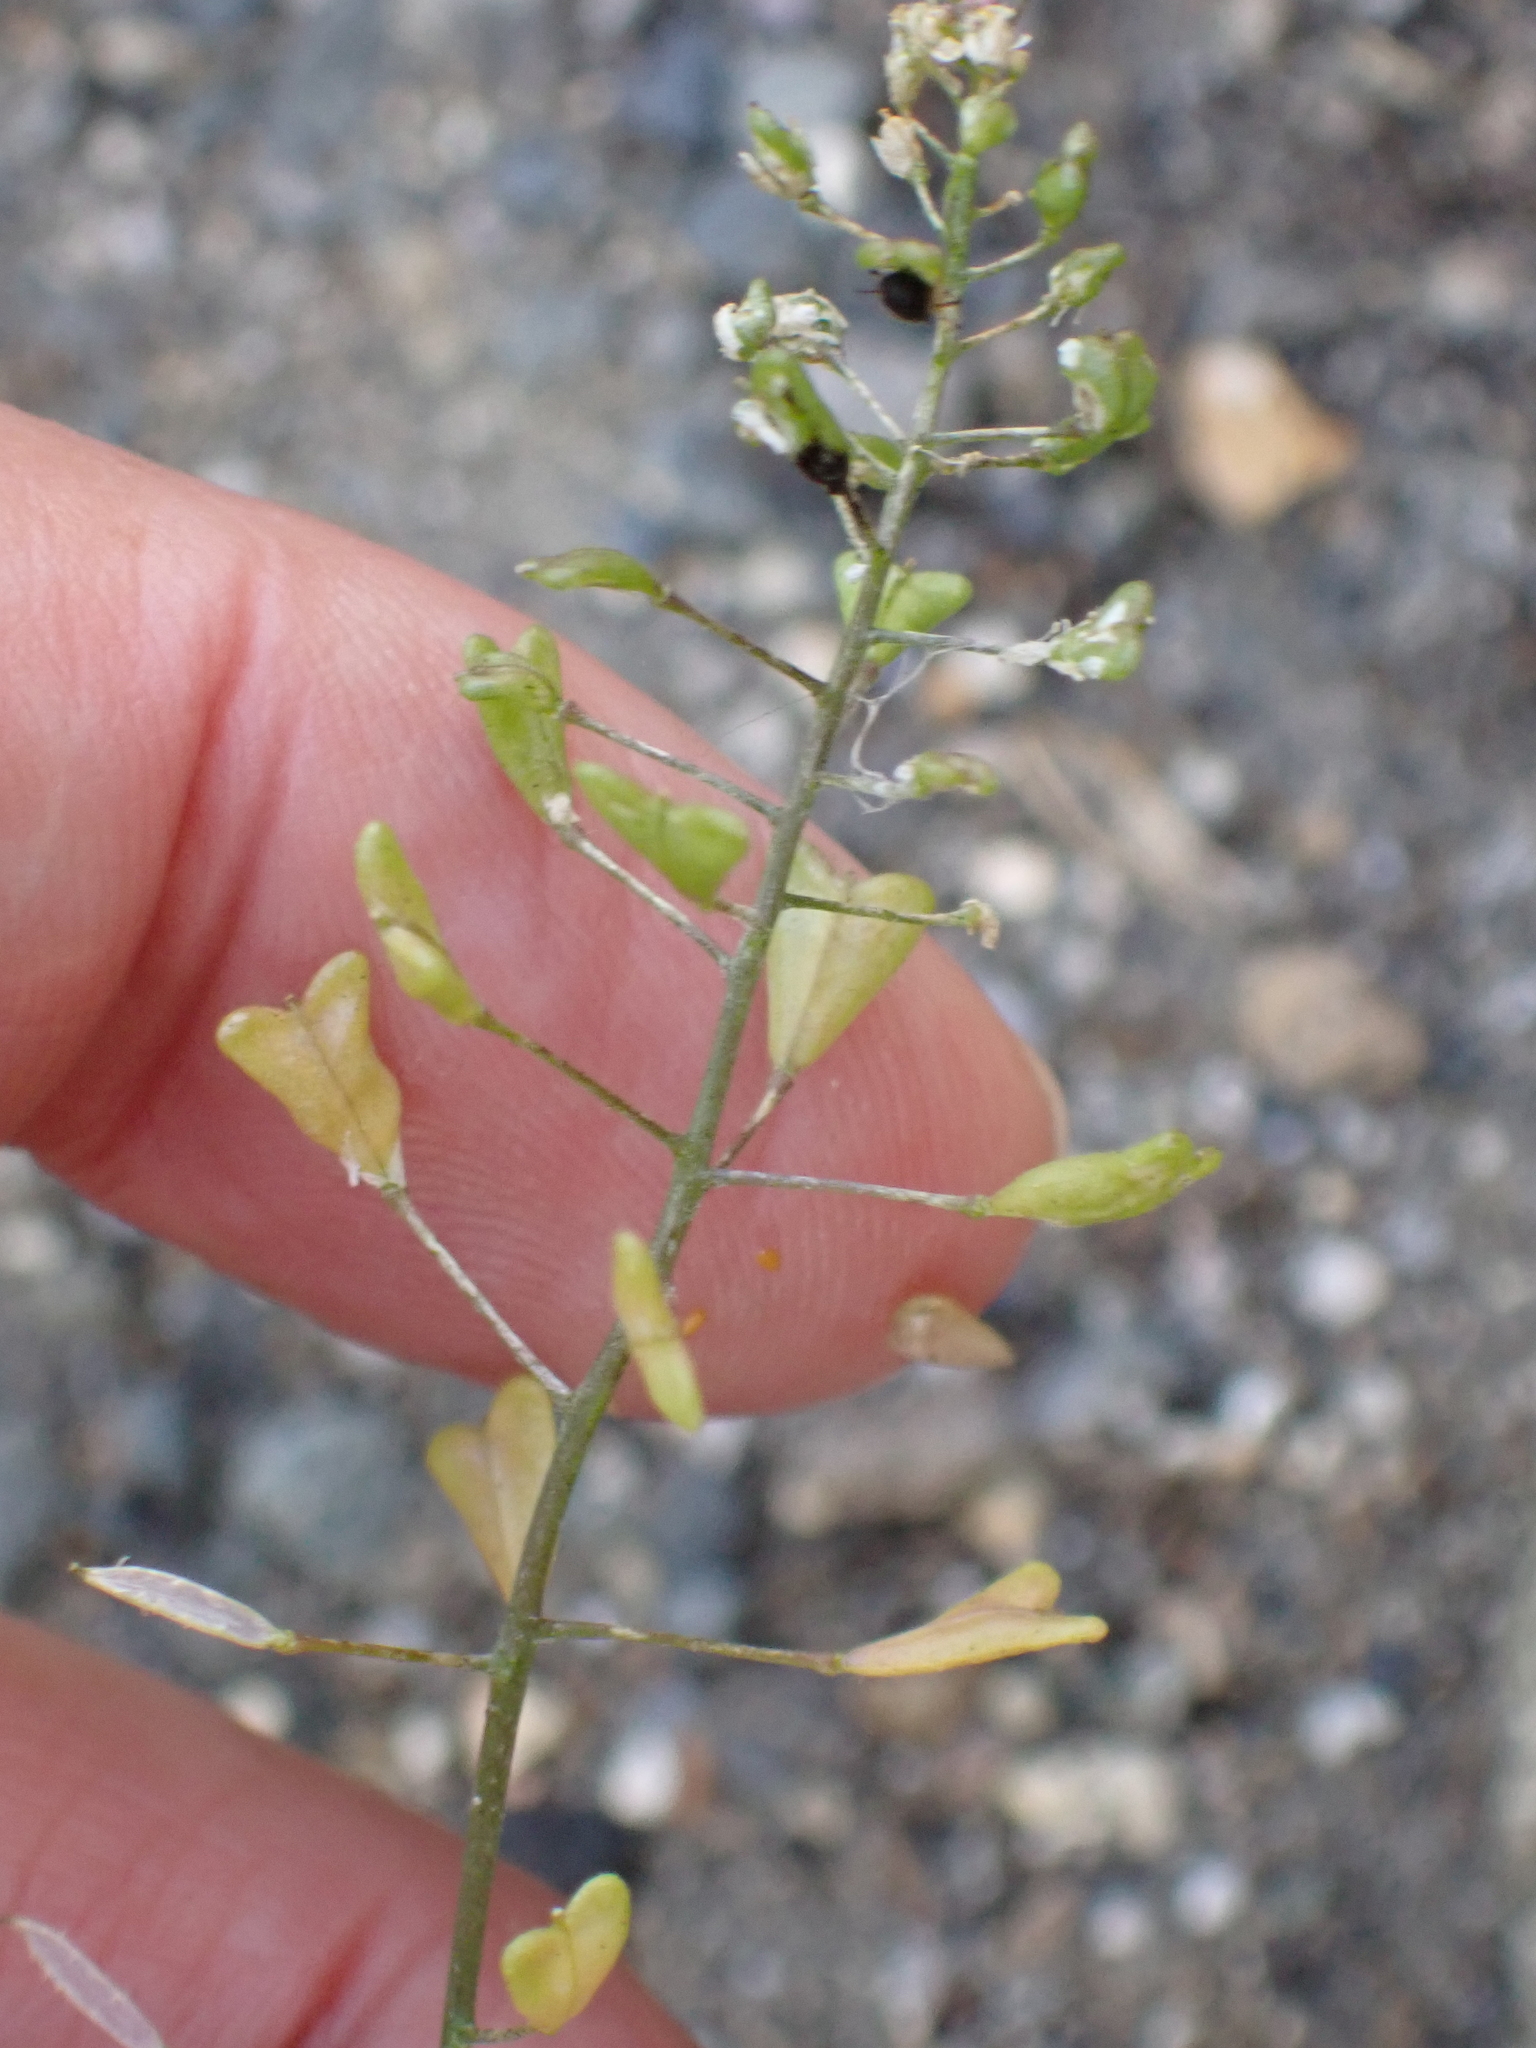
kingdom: Plantae
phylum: Tracheophyta
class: Magnoliopsida
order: Brassicales
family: Brassicaceae
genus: Capsella
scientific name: Capsella bursa-pastoris
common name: Shepherd's purse
